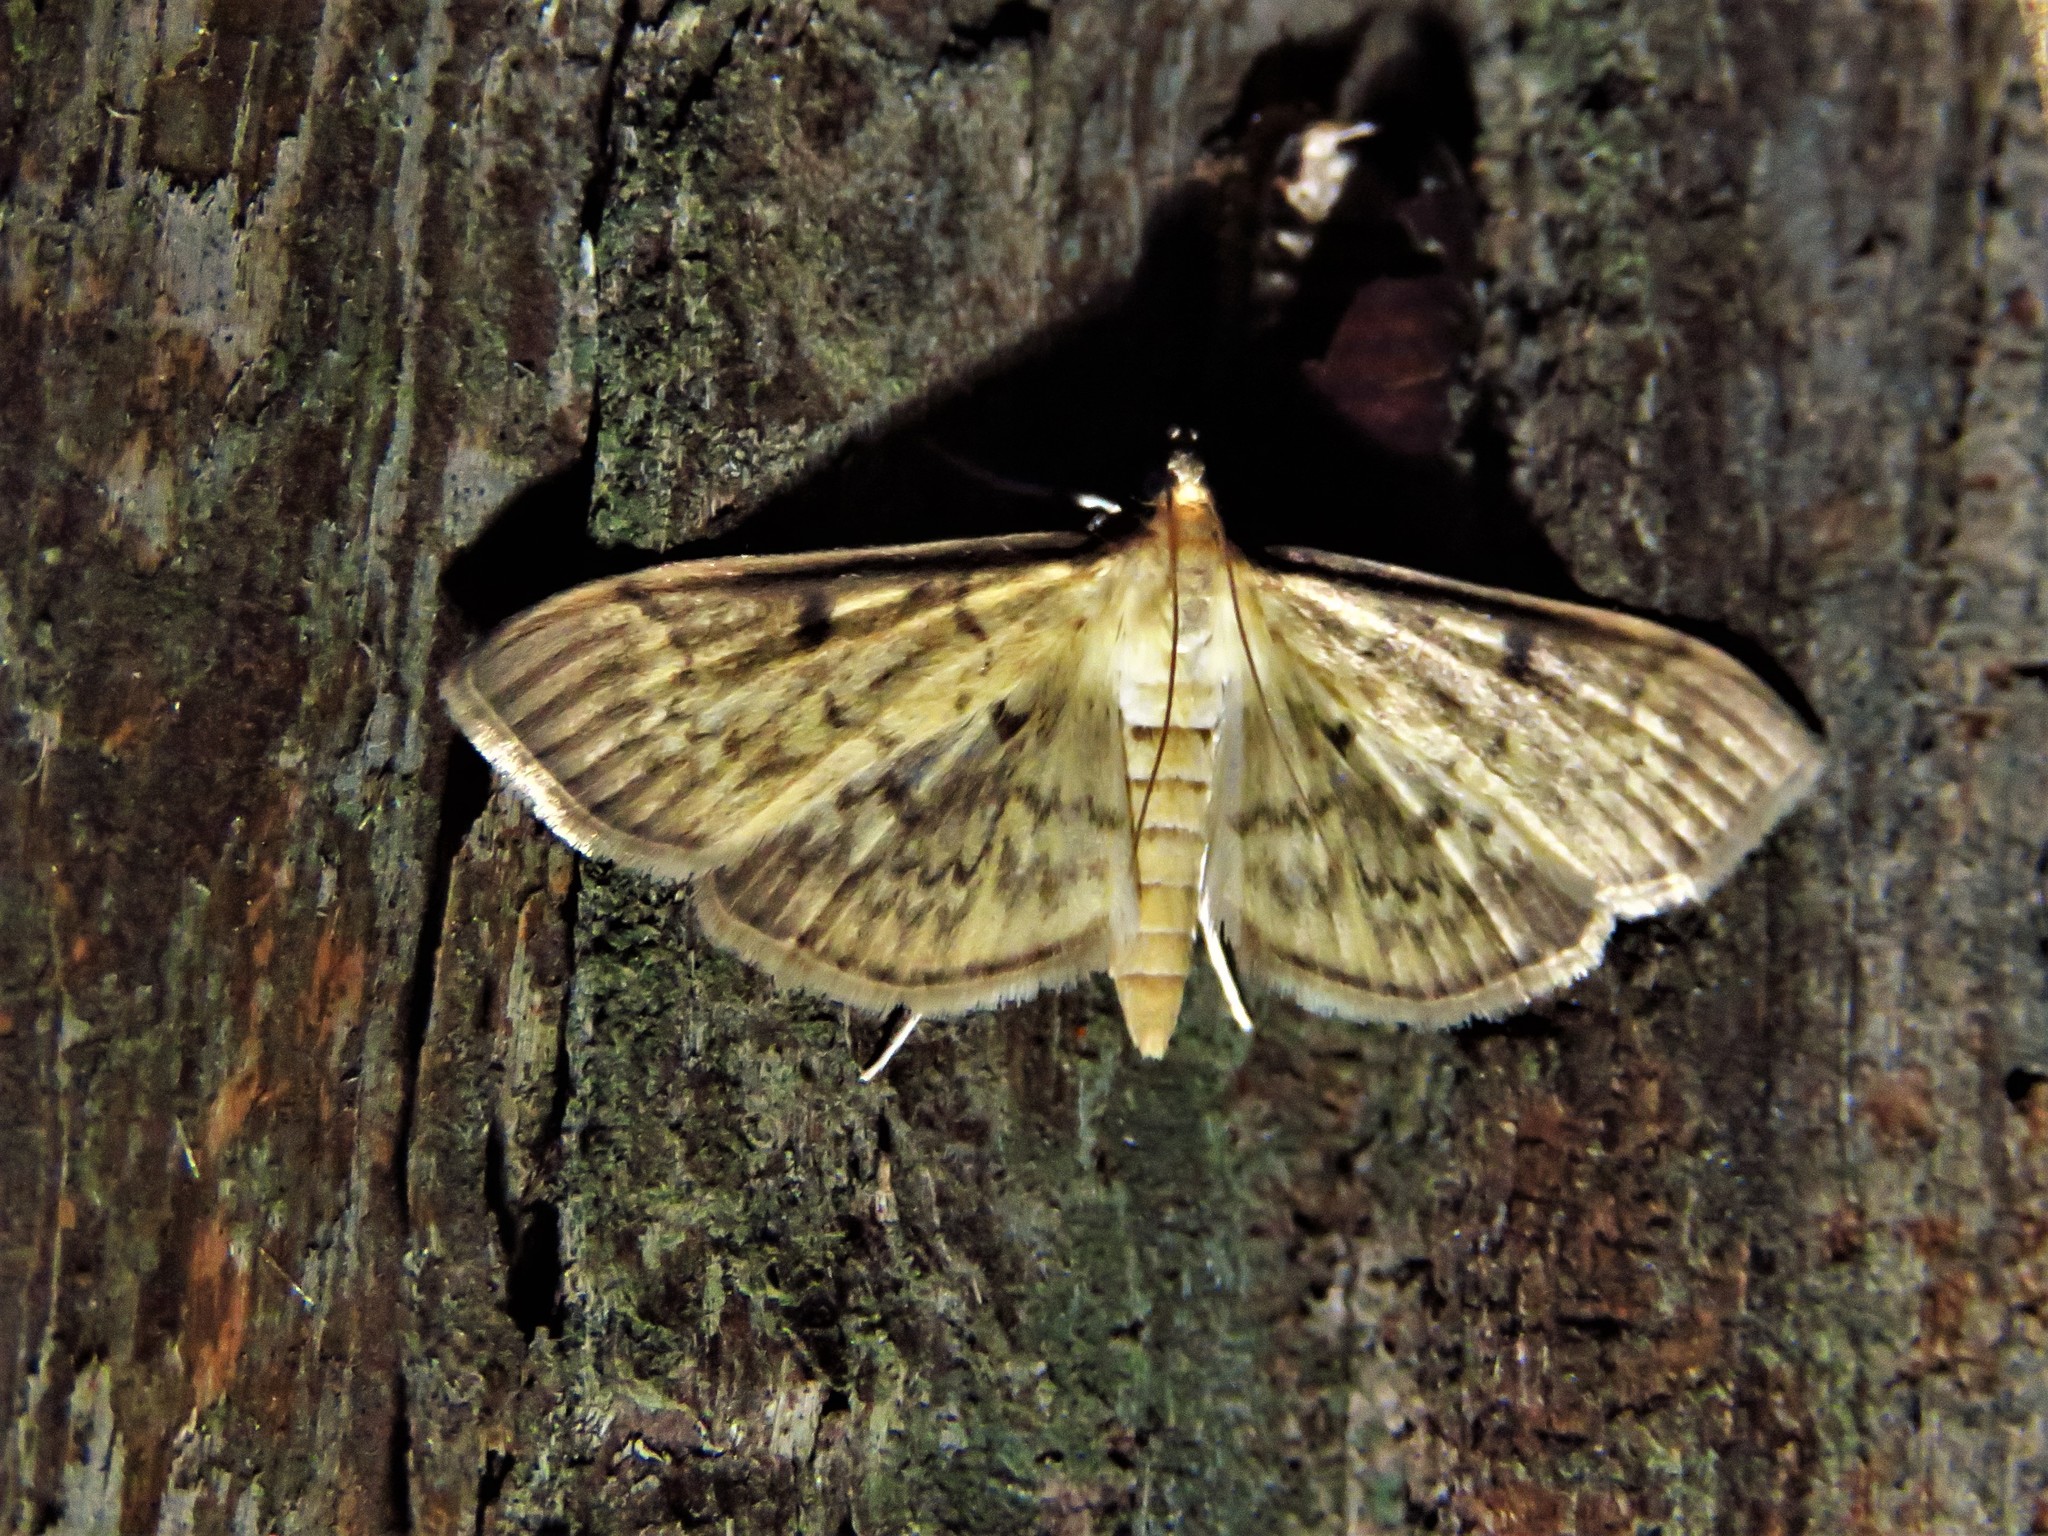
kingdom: Animalia
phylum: Arthropoda
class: Insecta
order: Lepidoptera
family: Crambidae
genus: Herpetogramma
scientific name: Herpetogramma fluctuosalis
